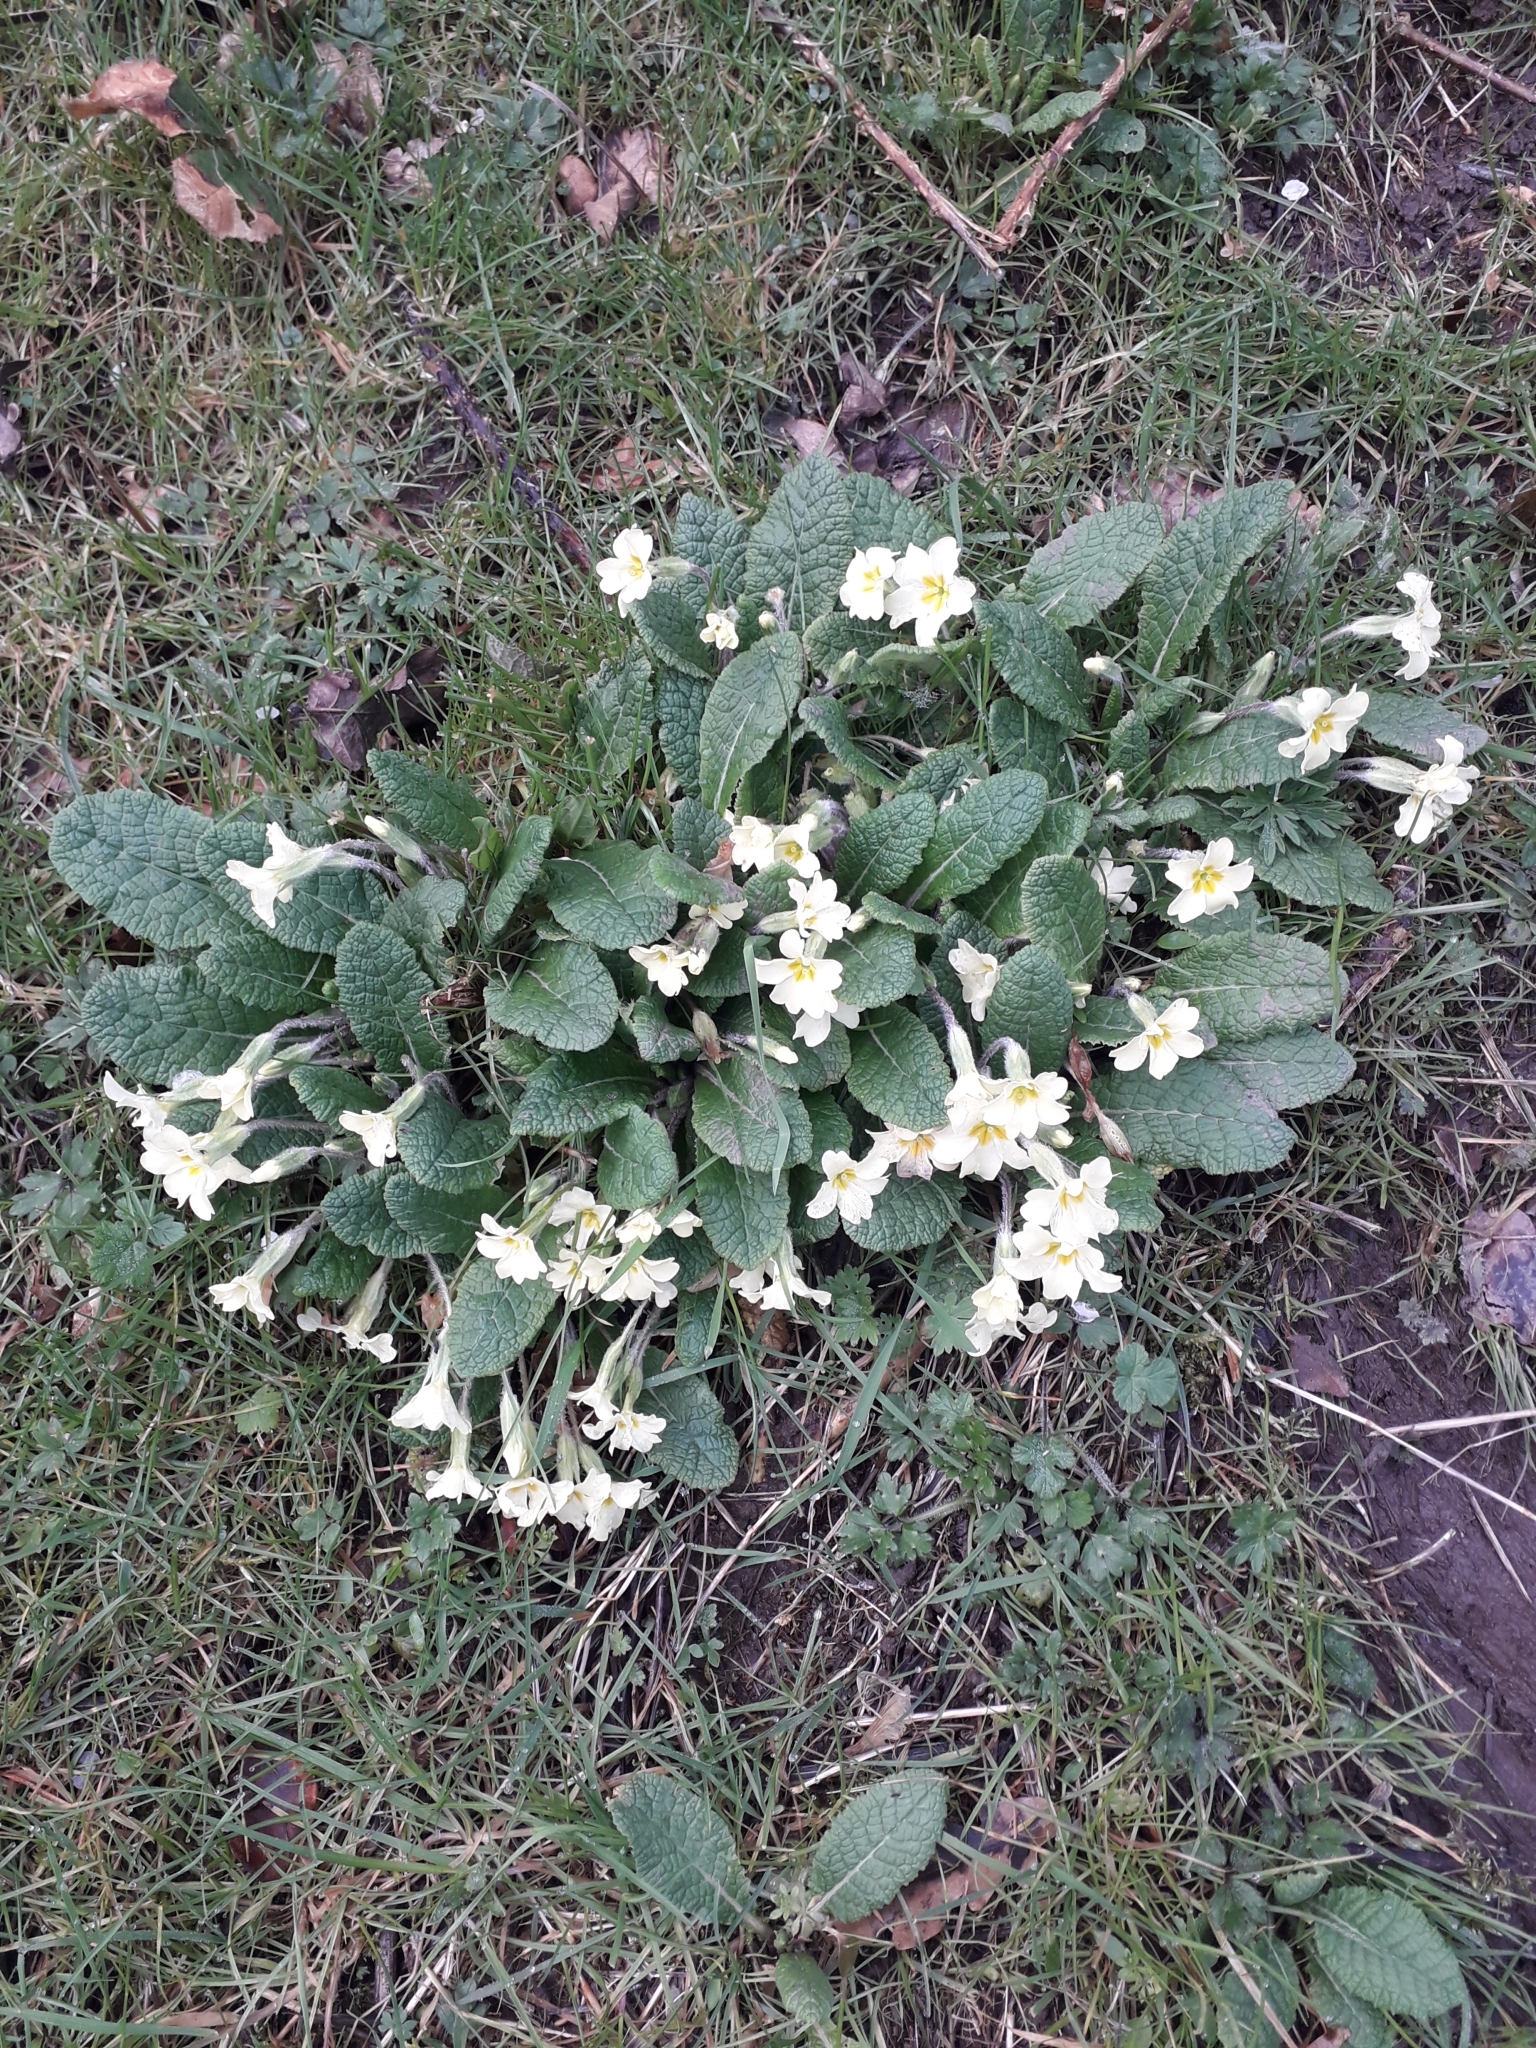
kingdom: Plantae
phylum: Tracheophyta
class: Magnoliopsida
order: Ericales
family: Primulaceae
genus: Primula
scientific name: Primula vulgaris
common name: Primrose
